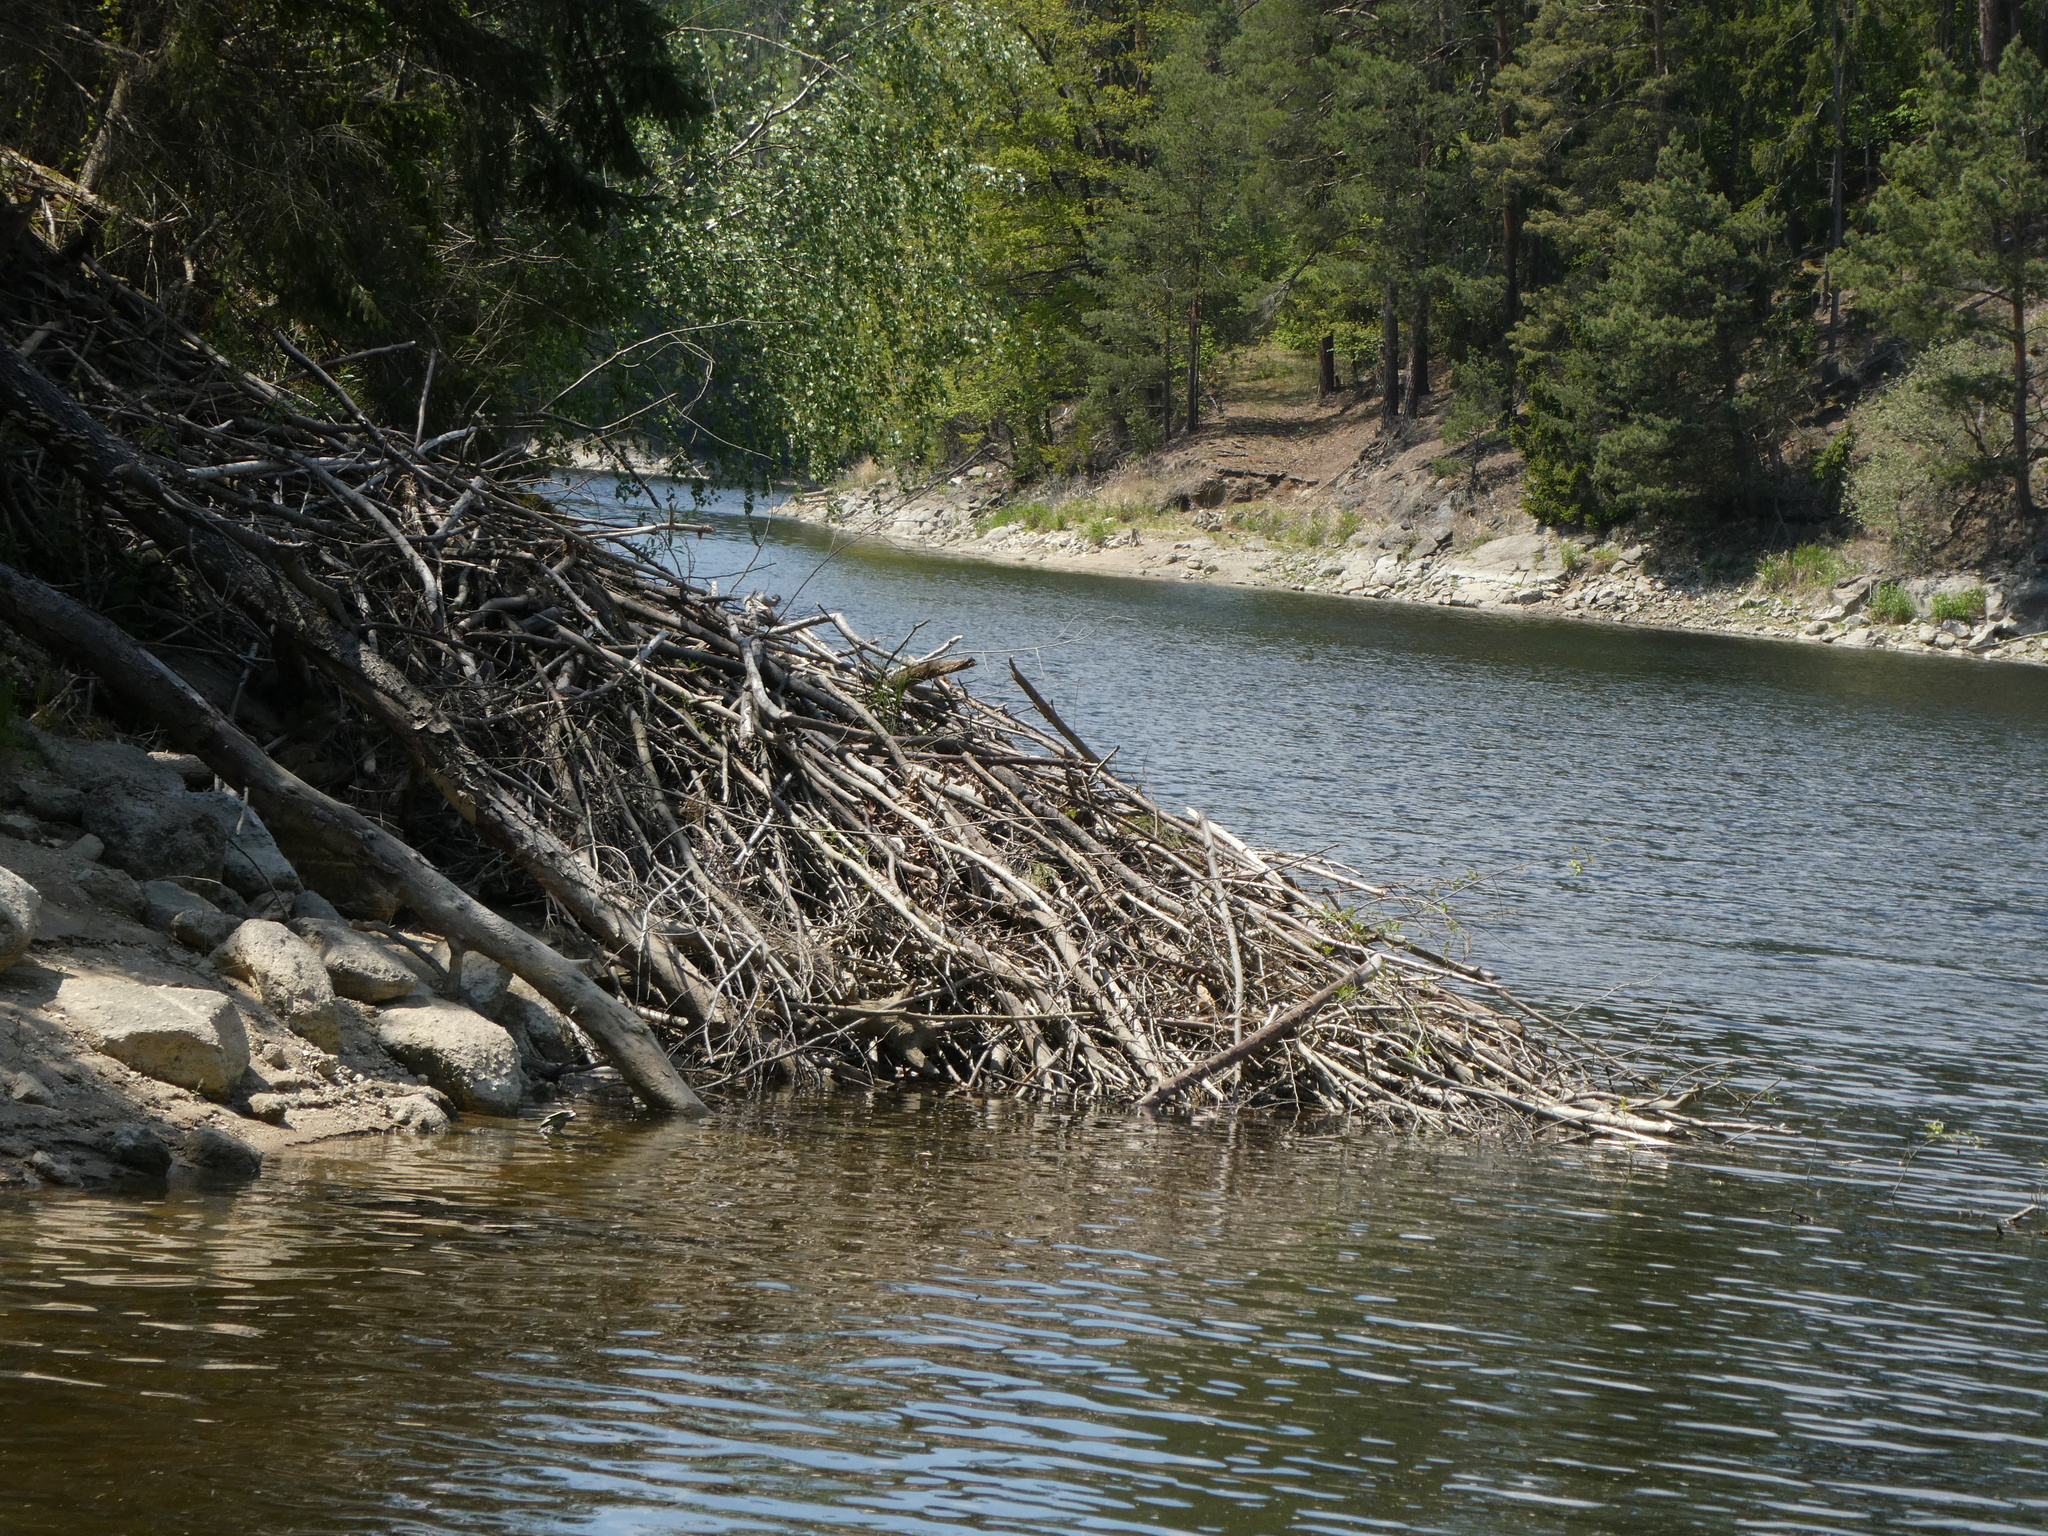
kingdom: Animalia
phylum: Chordata
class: Mammalia
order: Rodentia
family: Castoridae
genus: Castor
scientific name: Castor fiber
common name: Eurasian beaver
